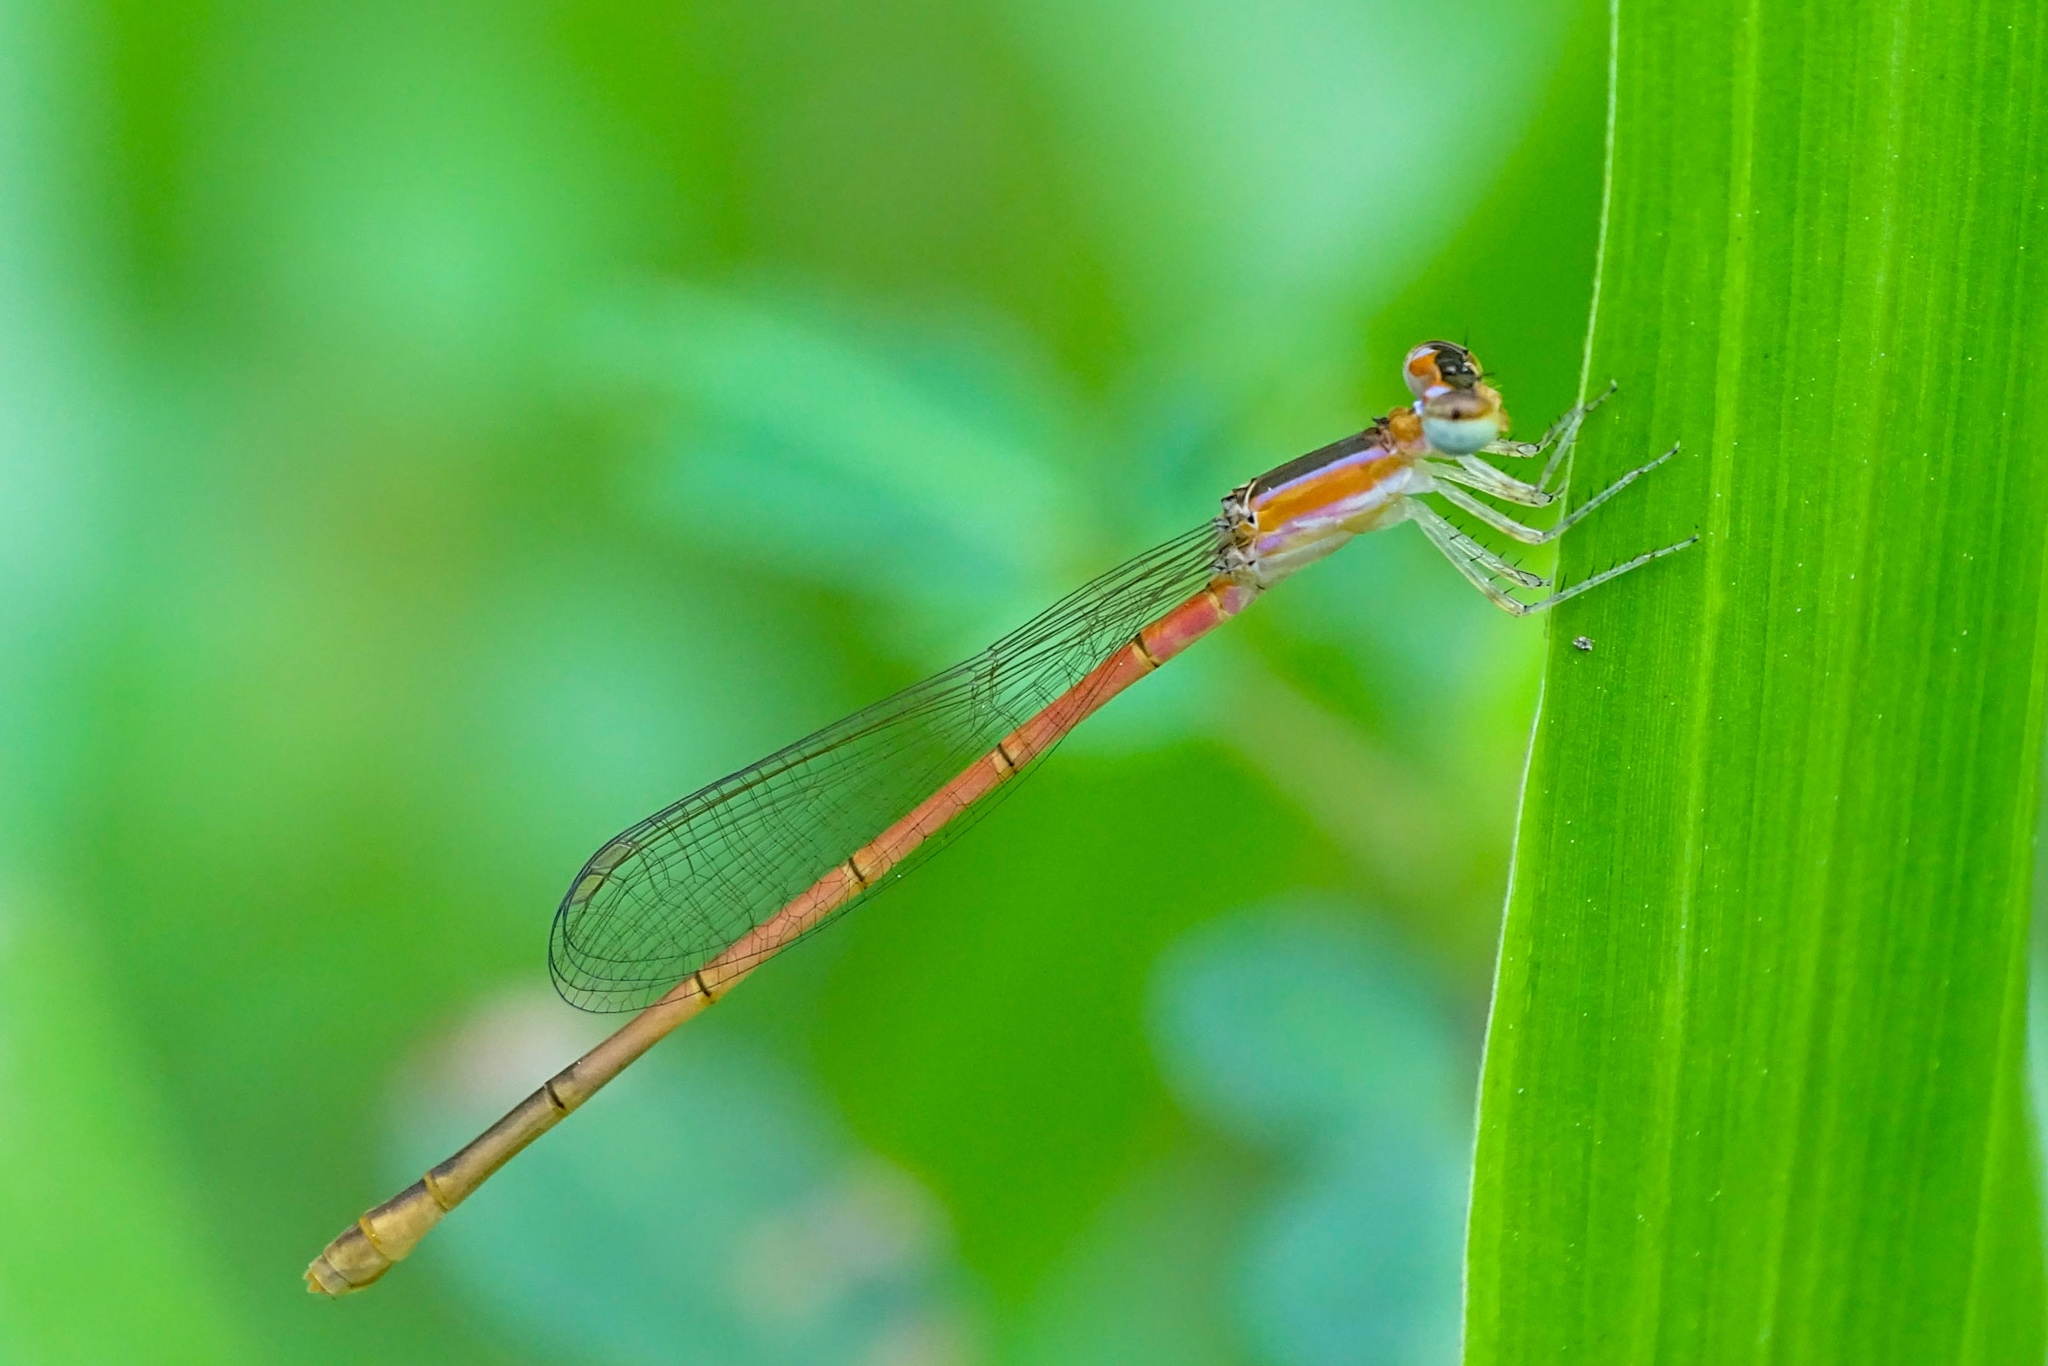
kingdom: Animalia
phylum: Arthropoda
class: Insecta
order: Odonata
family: Coenagrionidae
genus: Agriocnemis
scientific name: Agriocnemis pygmaea
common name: Pygmy wisp
